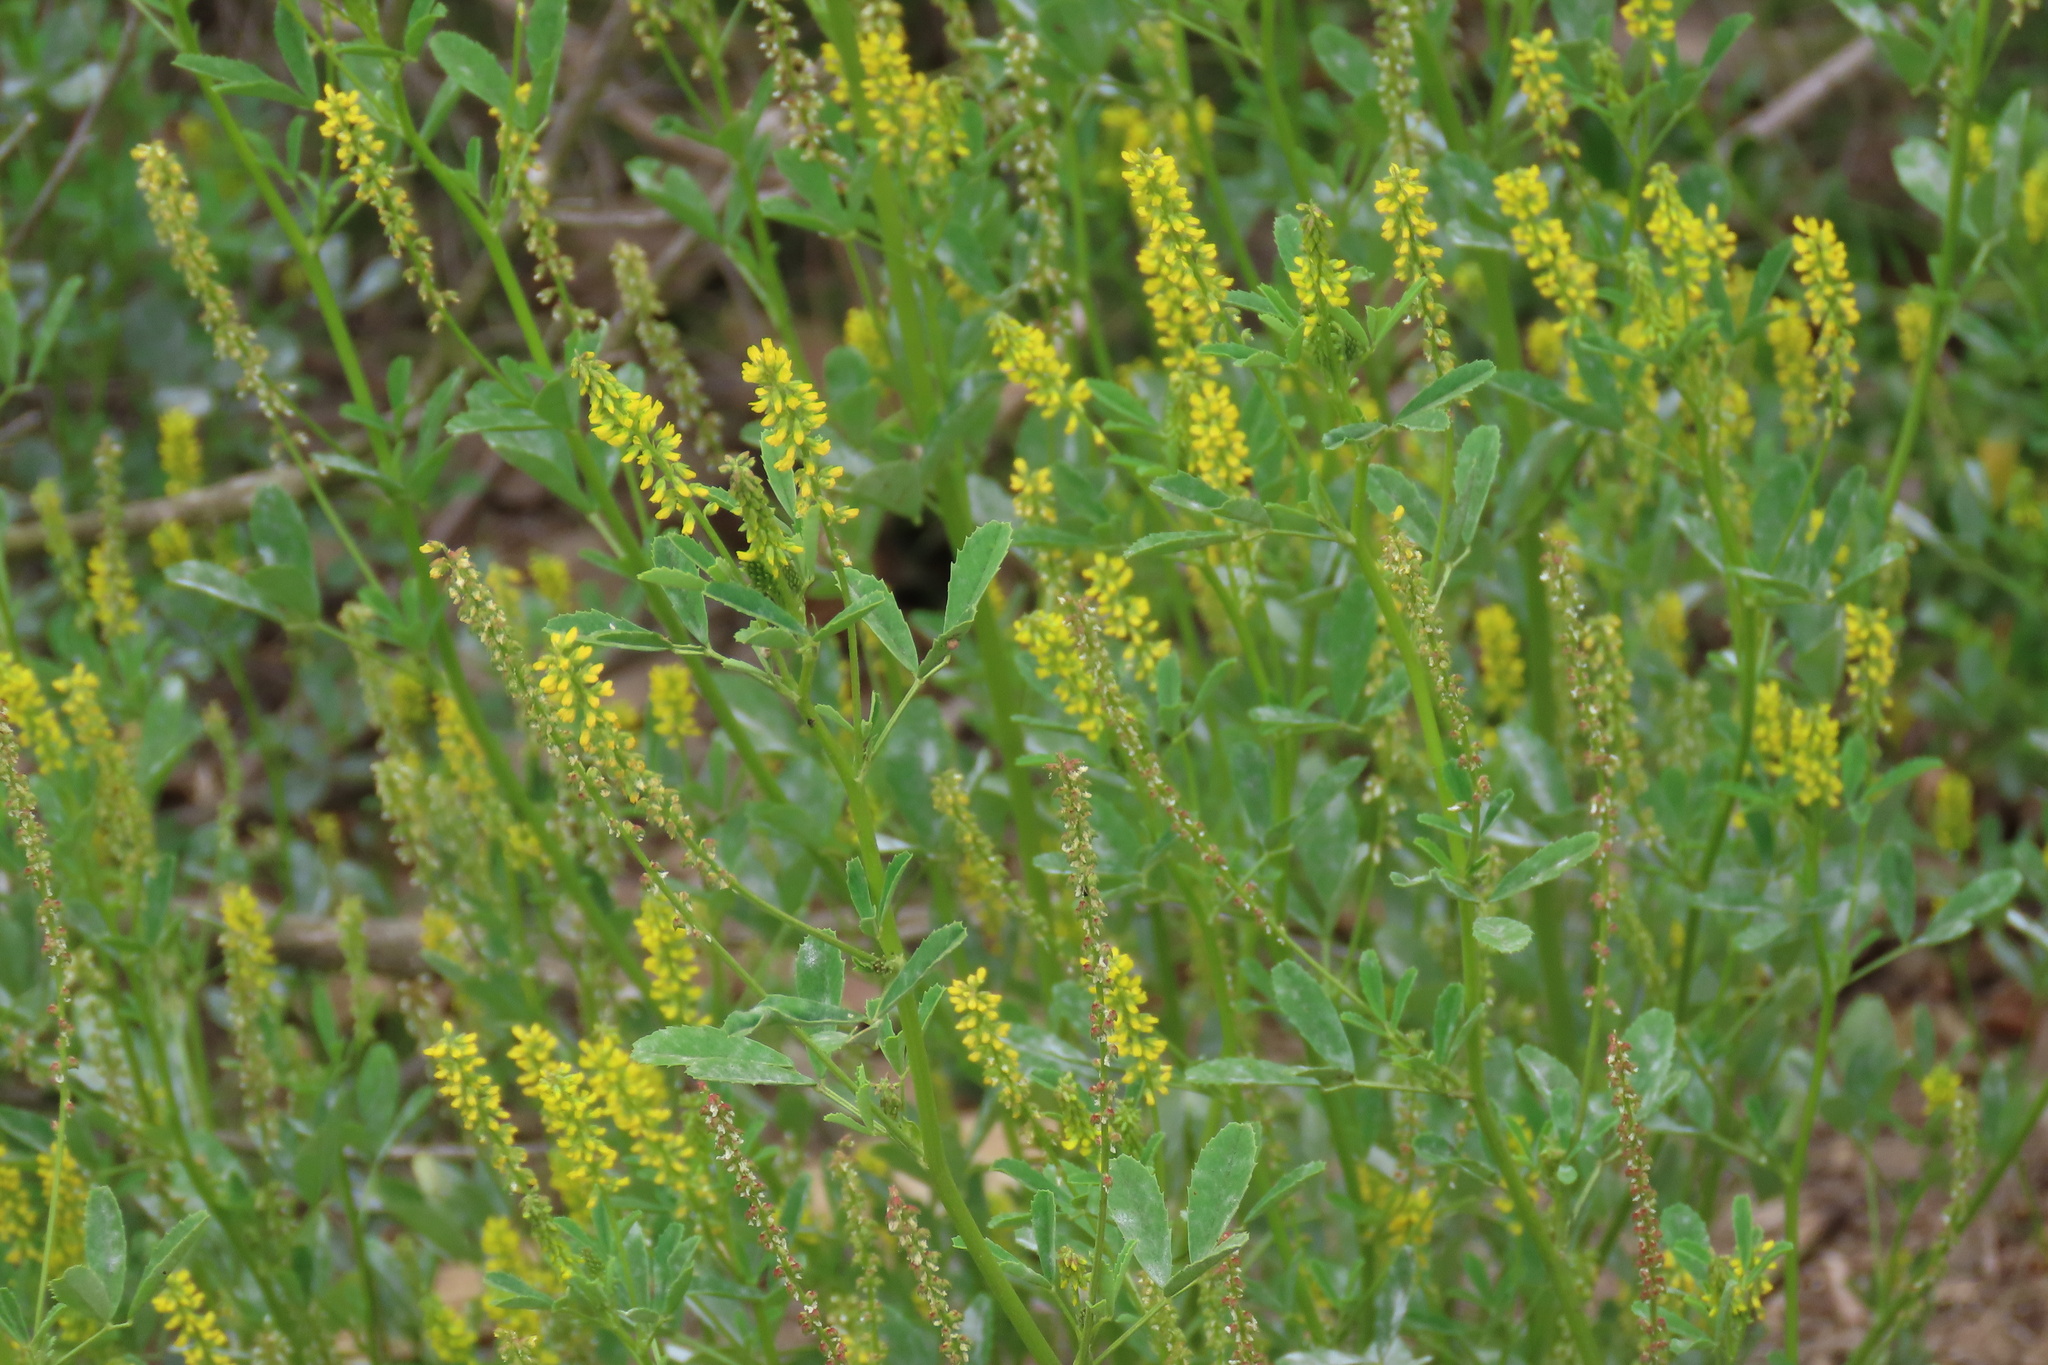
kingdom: Plantae
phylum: Tracheophyta
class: Magnoliopsida
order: Fabales
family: Fabaceae
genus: Melilotus
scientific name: Melilotus indicus
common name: Small melilot
